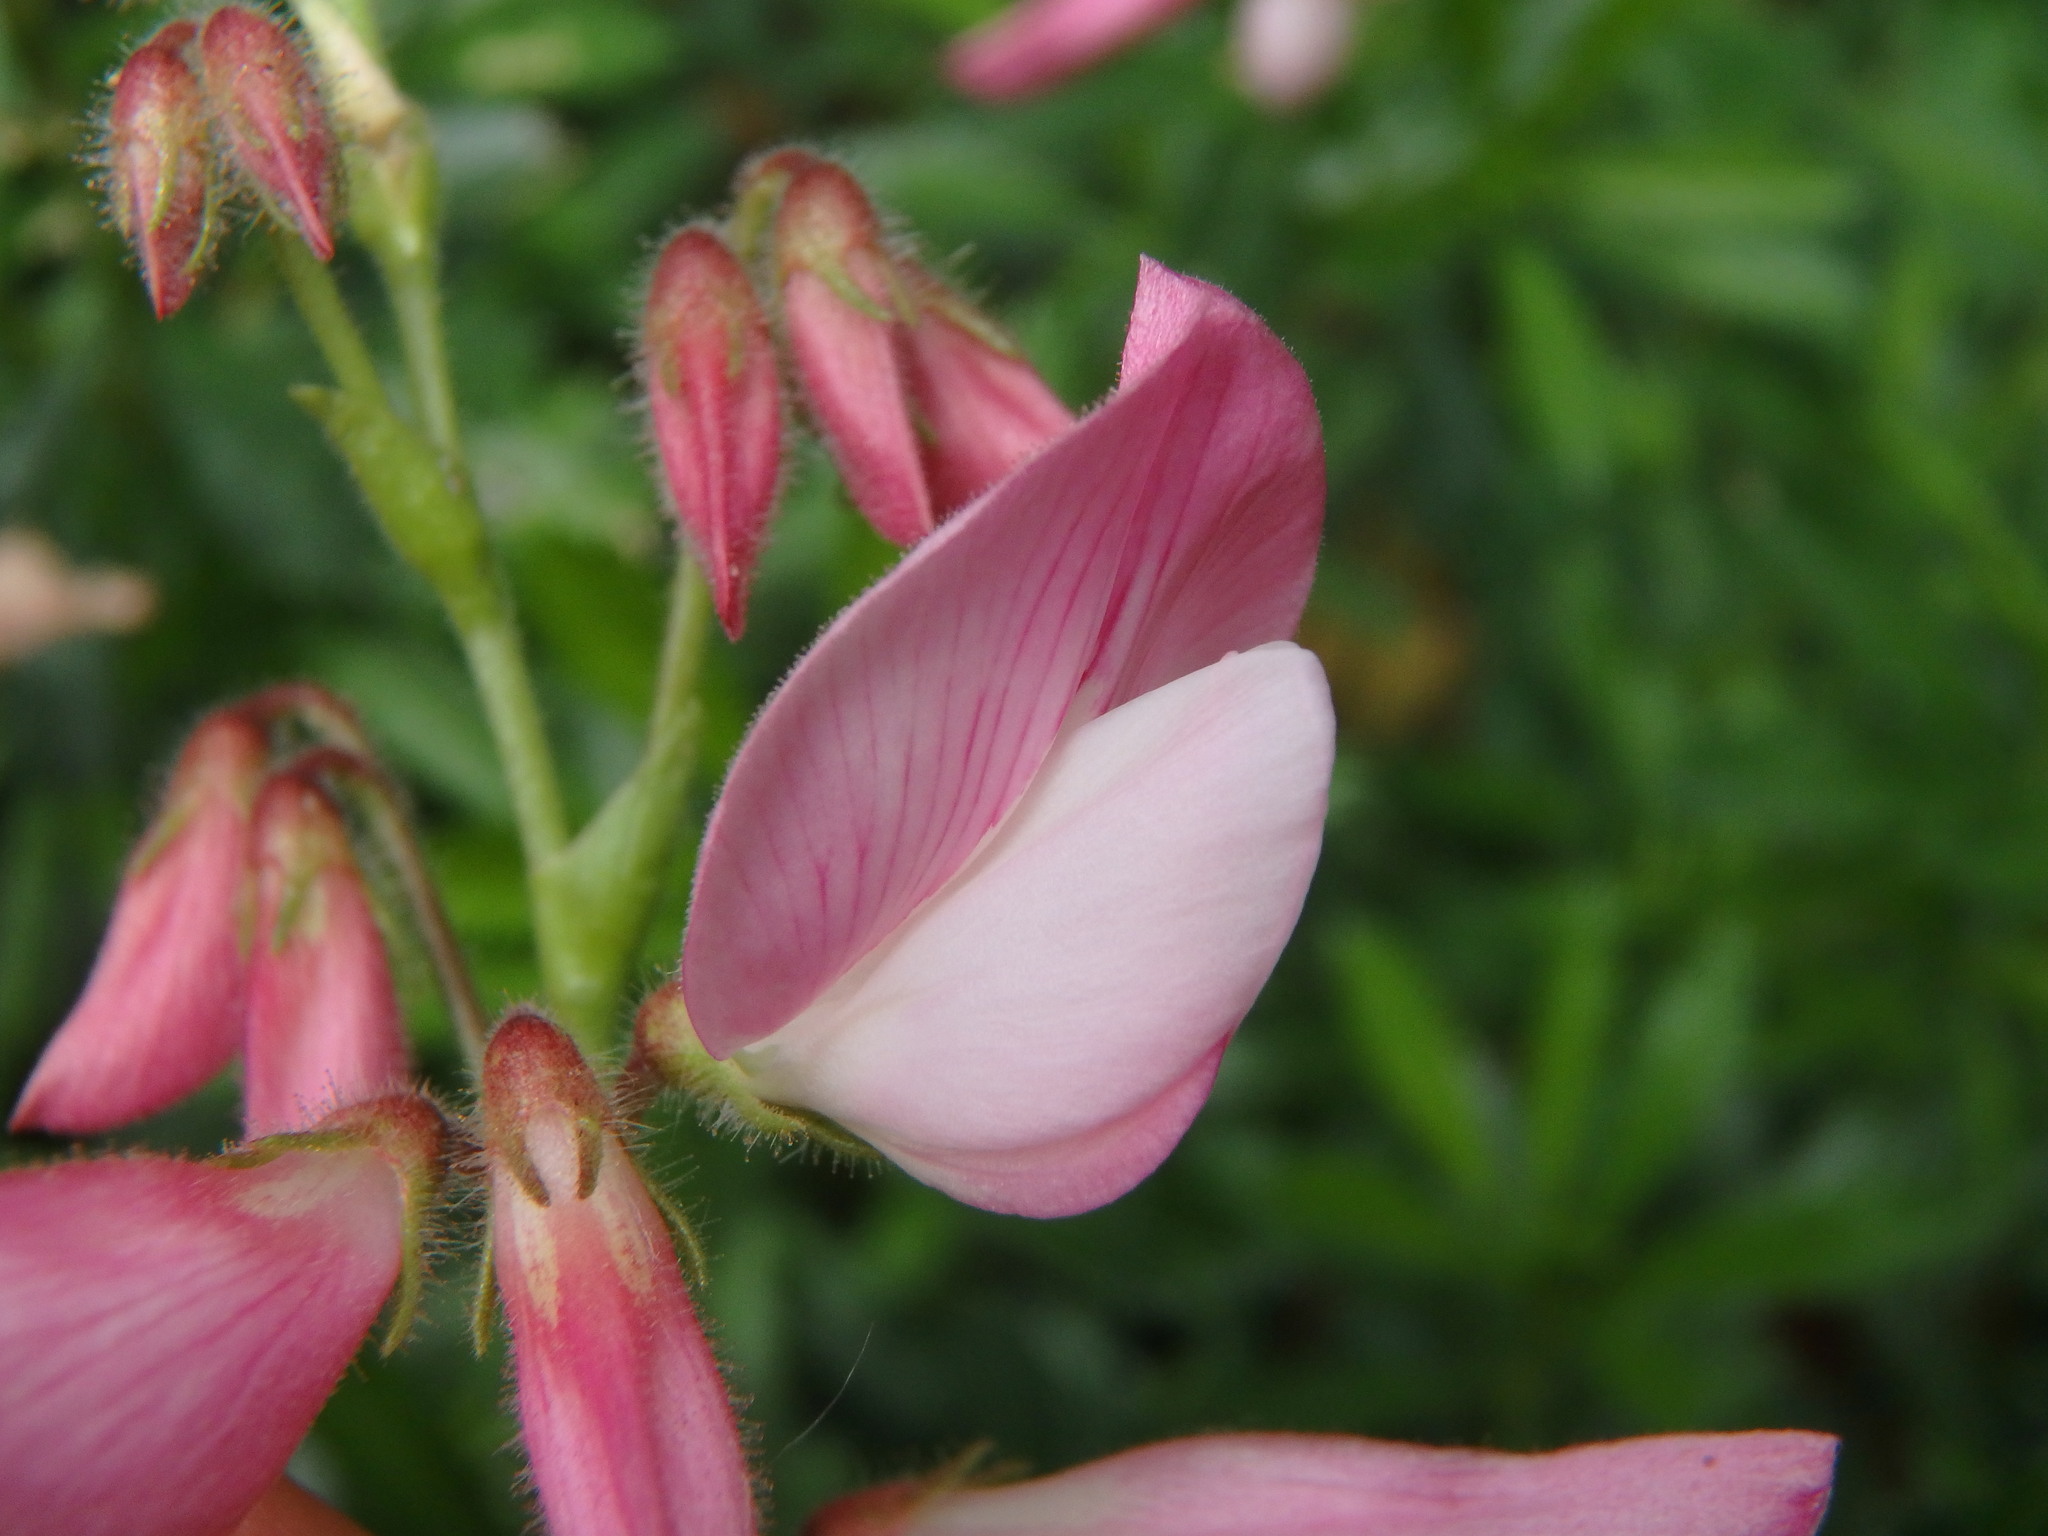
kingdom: Plantae
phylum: Tracheophyta
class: Magnoliopsida
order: Fabales
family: Fabaceae
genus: Ononis
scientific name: Ononis fruticosa
